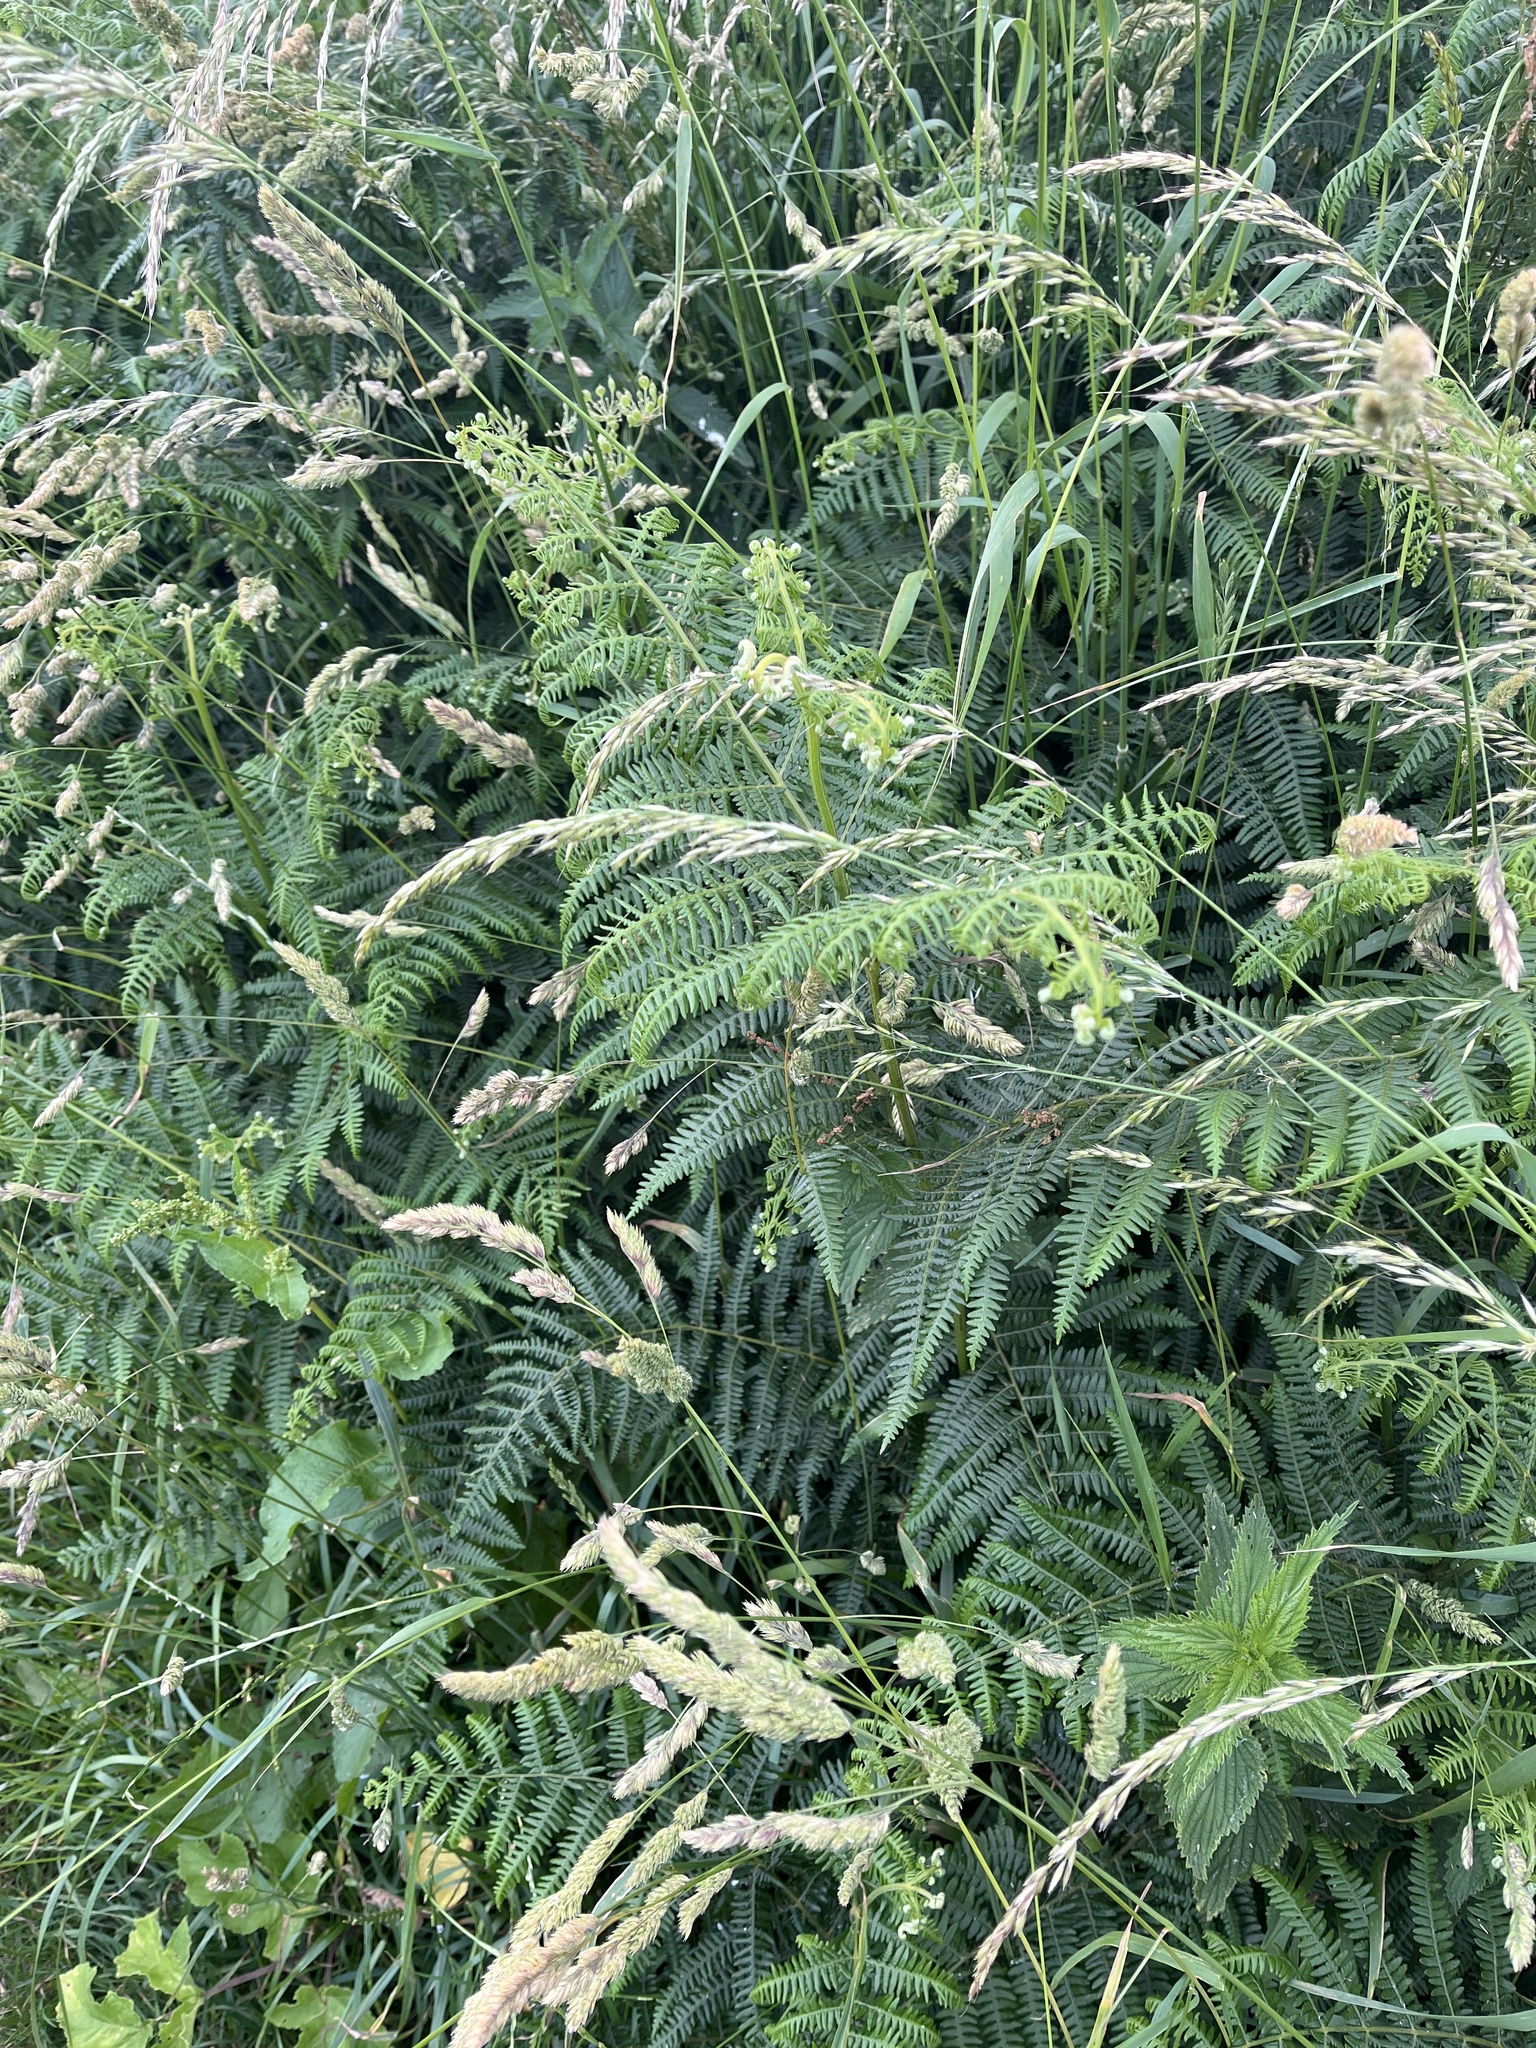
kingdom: Plantae
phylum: Tracheophyta
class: Polypodiopsida
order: Polypodiales
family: Dennstaedtiaceae
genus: Pteridium
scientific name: Pteridium aquilinum
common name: Bracken
